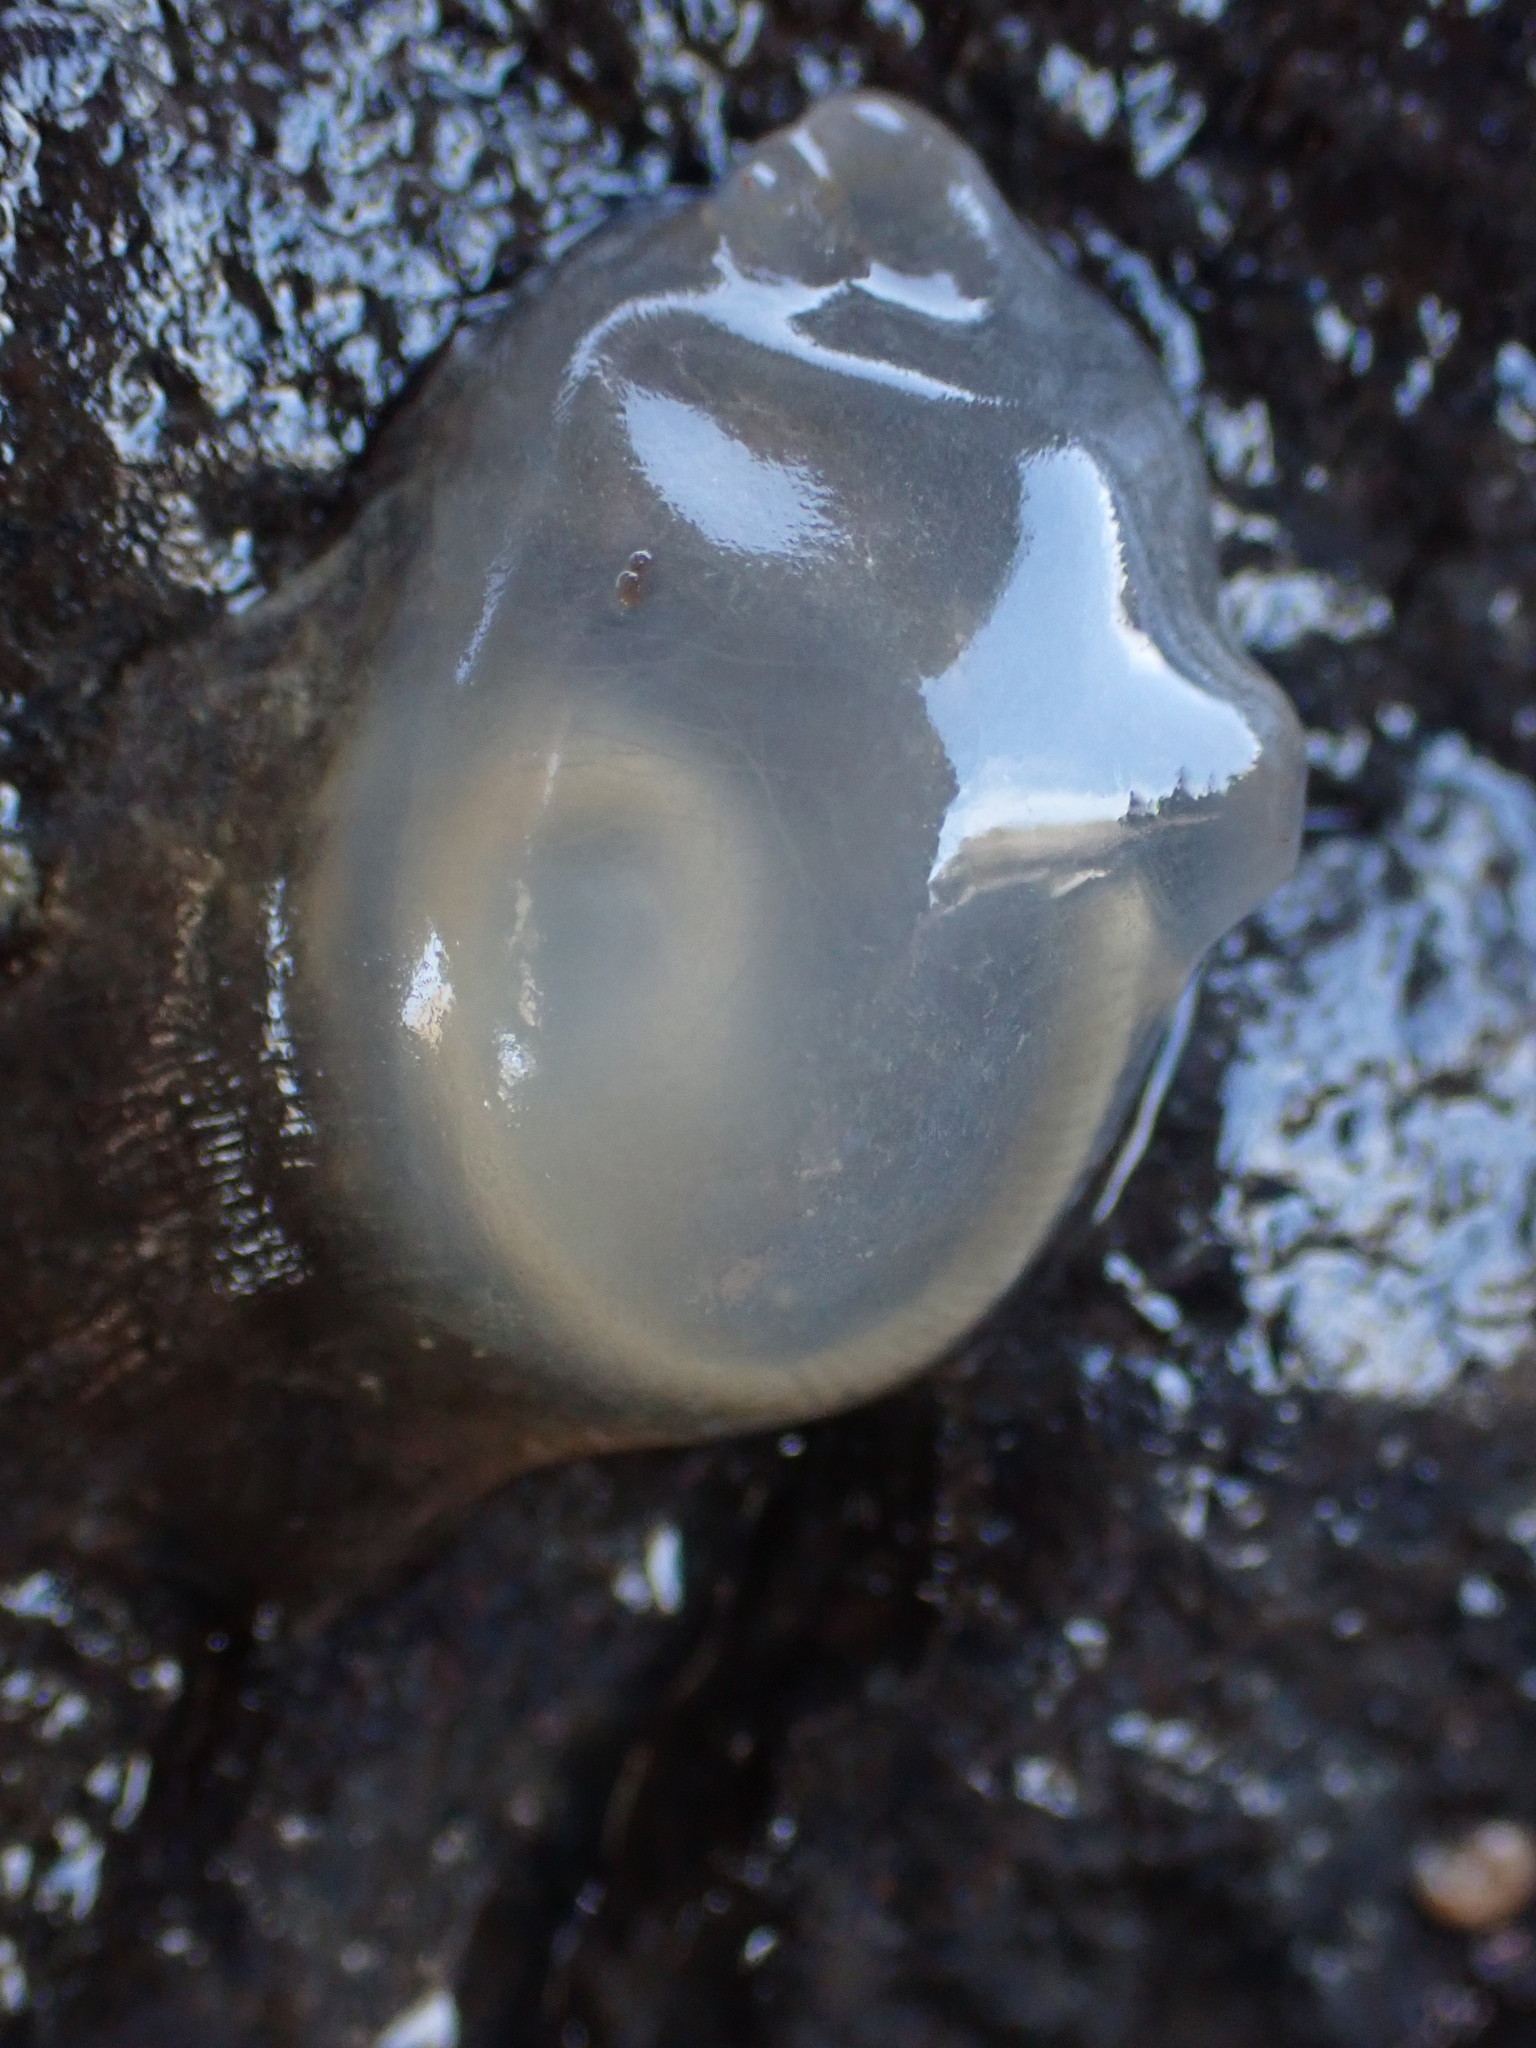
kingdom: Animalia
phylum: Chordata
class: Ascidiacea
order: Phlebobranchia
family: Agneziidae
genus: Agnezia
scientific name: Agnezia glaciata
